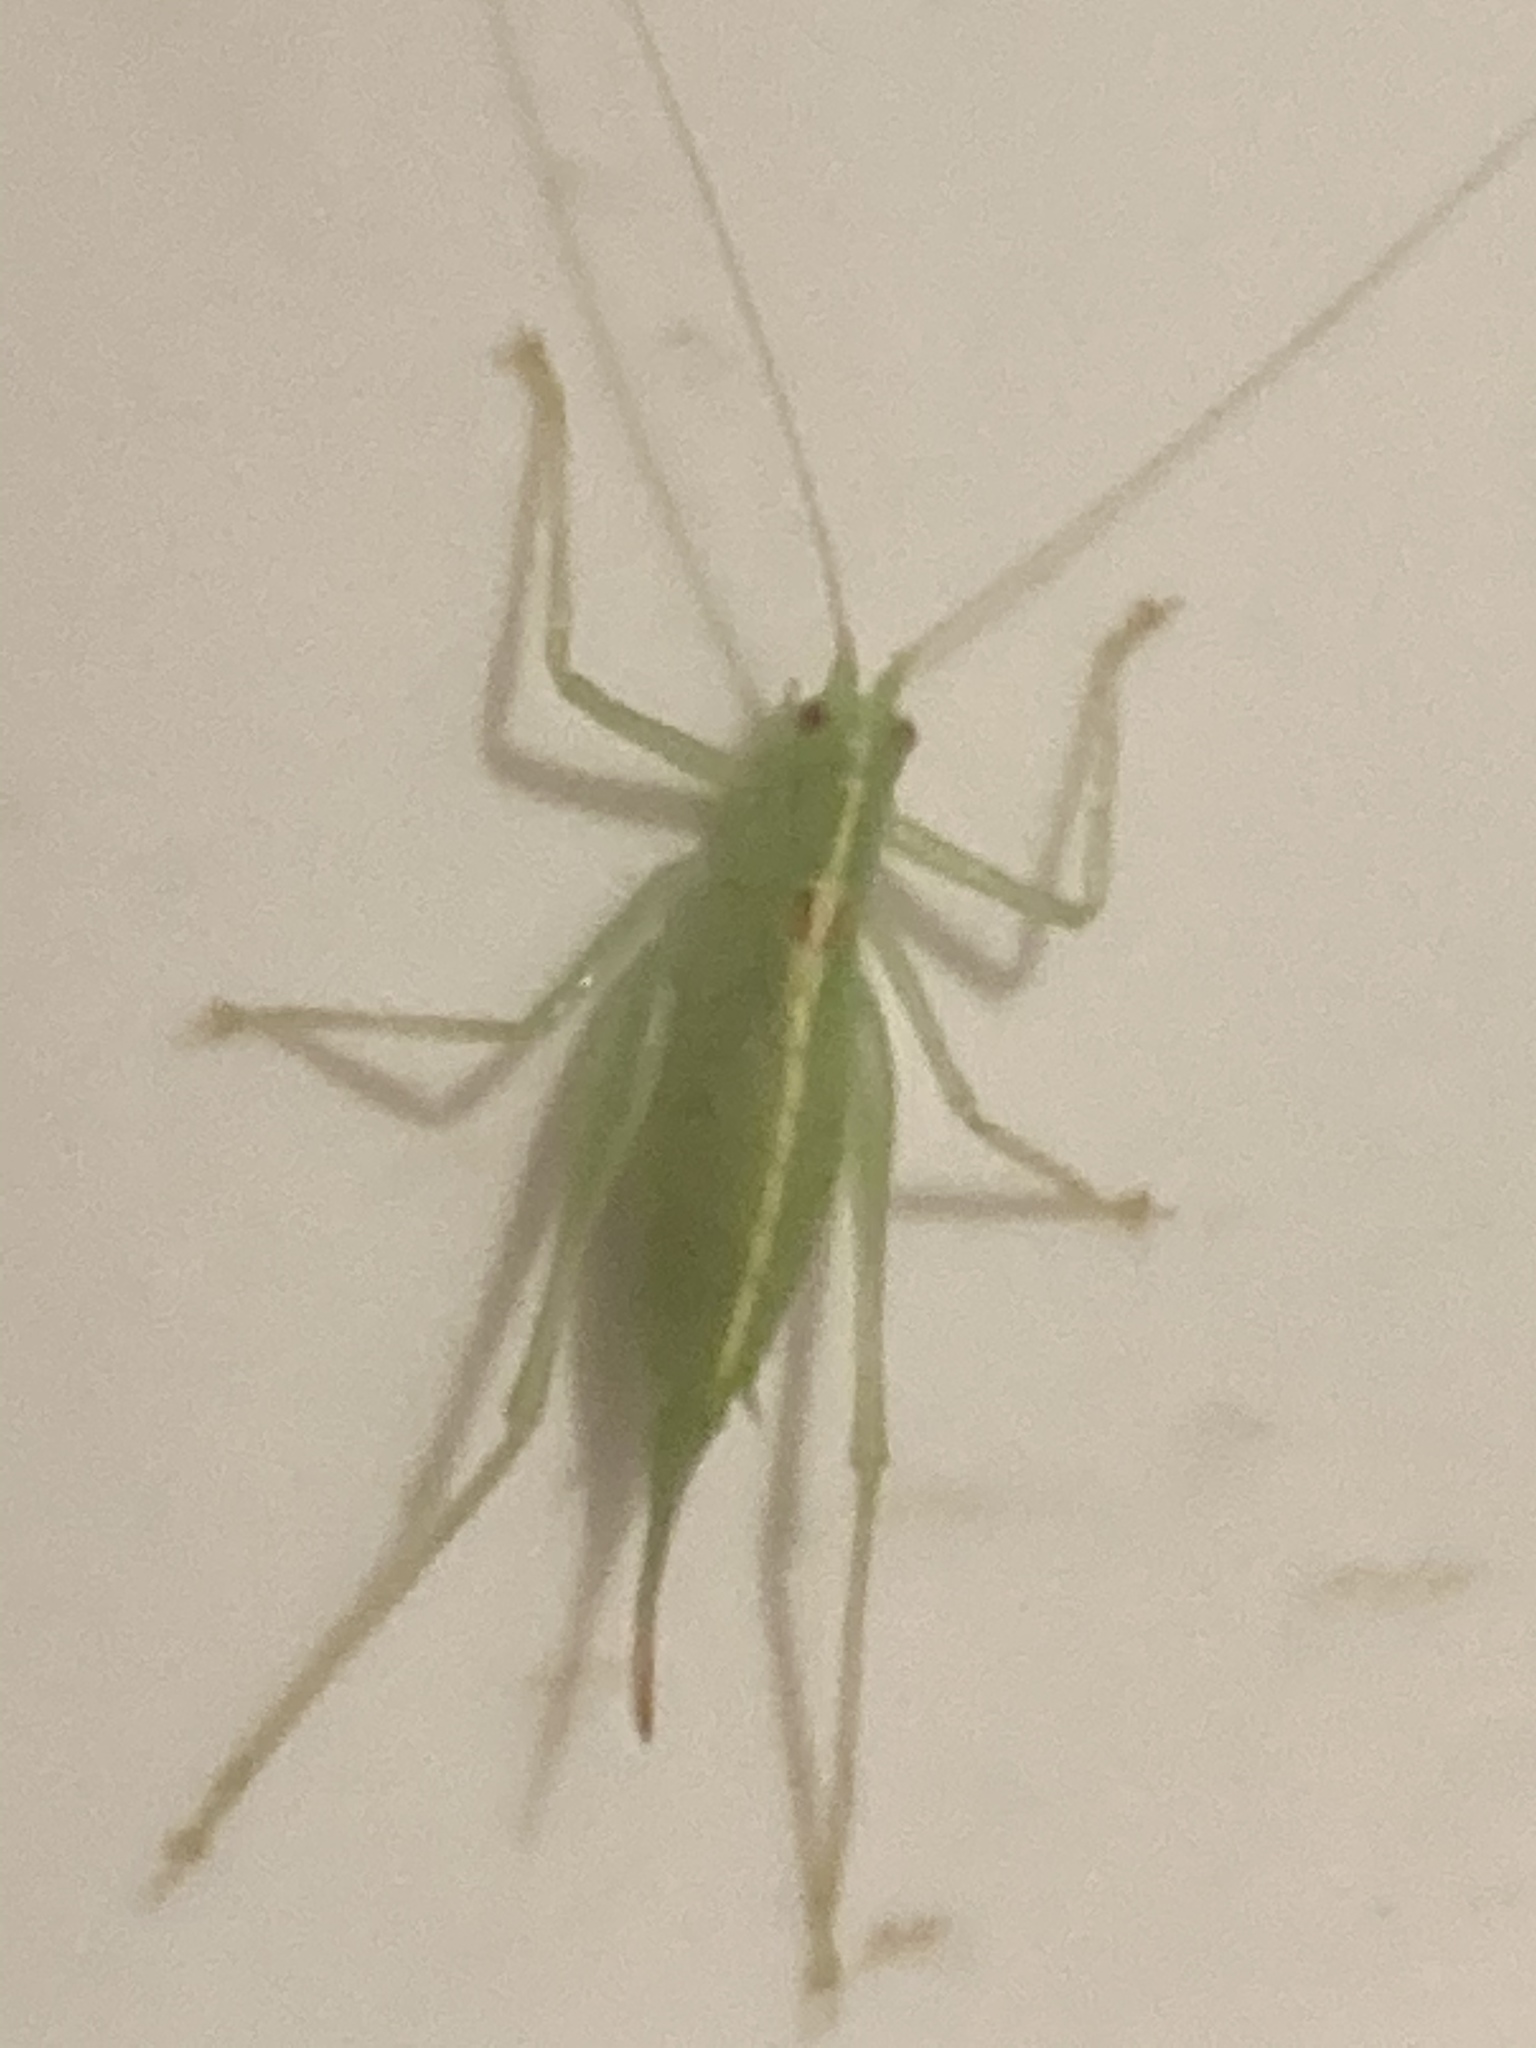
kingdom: Animalia
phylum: Arthropoda
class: Insecta
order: Orthoptera
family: Tettigoniidae
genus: Meconema
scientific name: Meconema meridionale
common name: Southern oak bush-cricket
